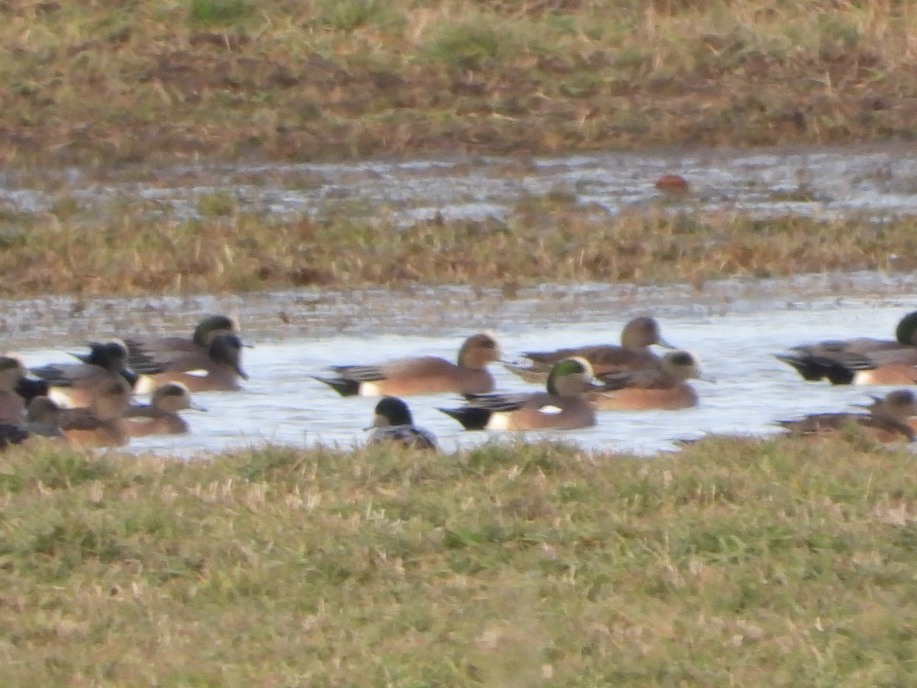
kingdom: Animalia
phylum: Chordata
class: Aves
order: Anseriformes
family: Anatidae
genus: Mareca
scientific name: Mareca
